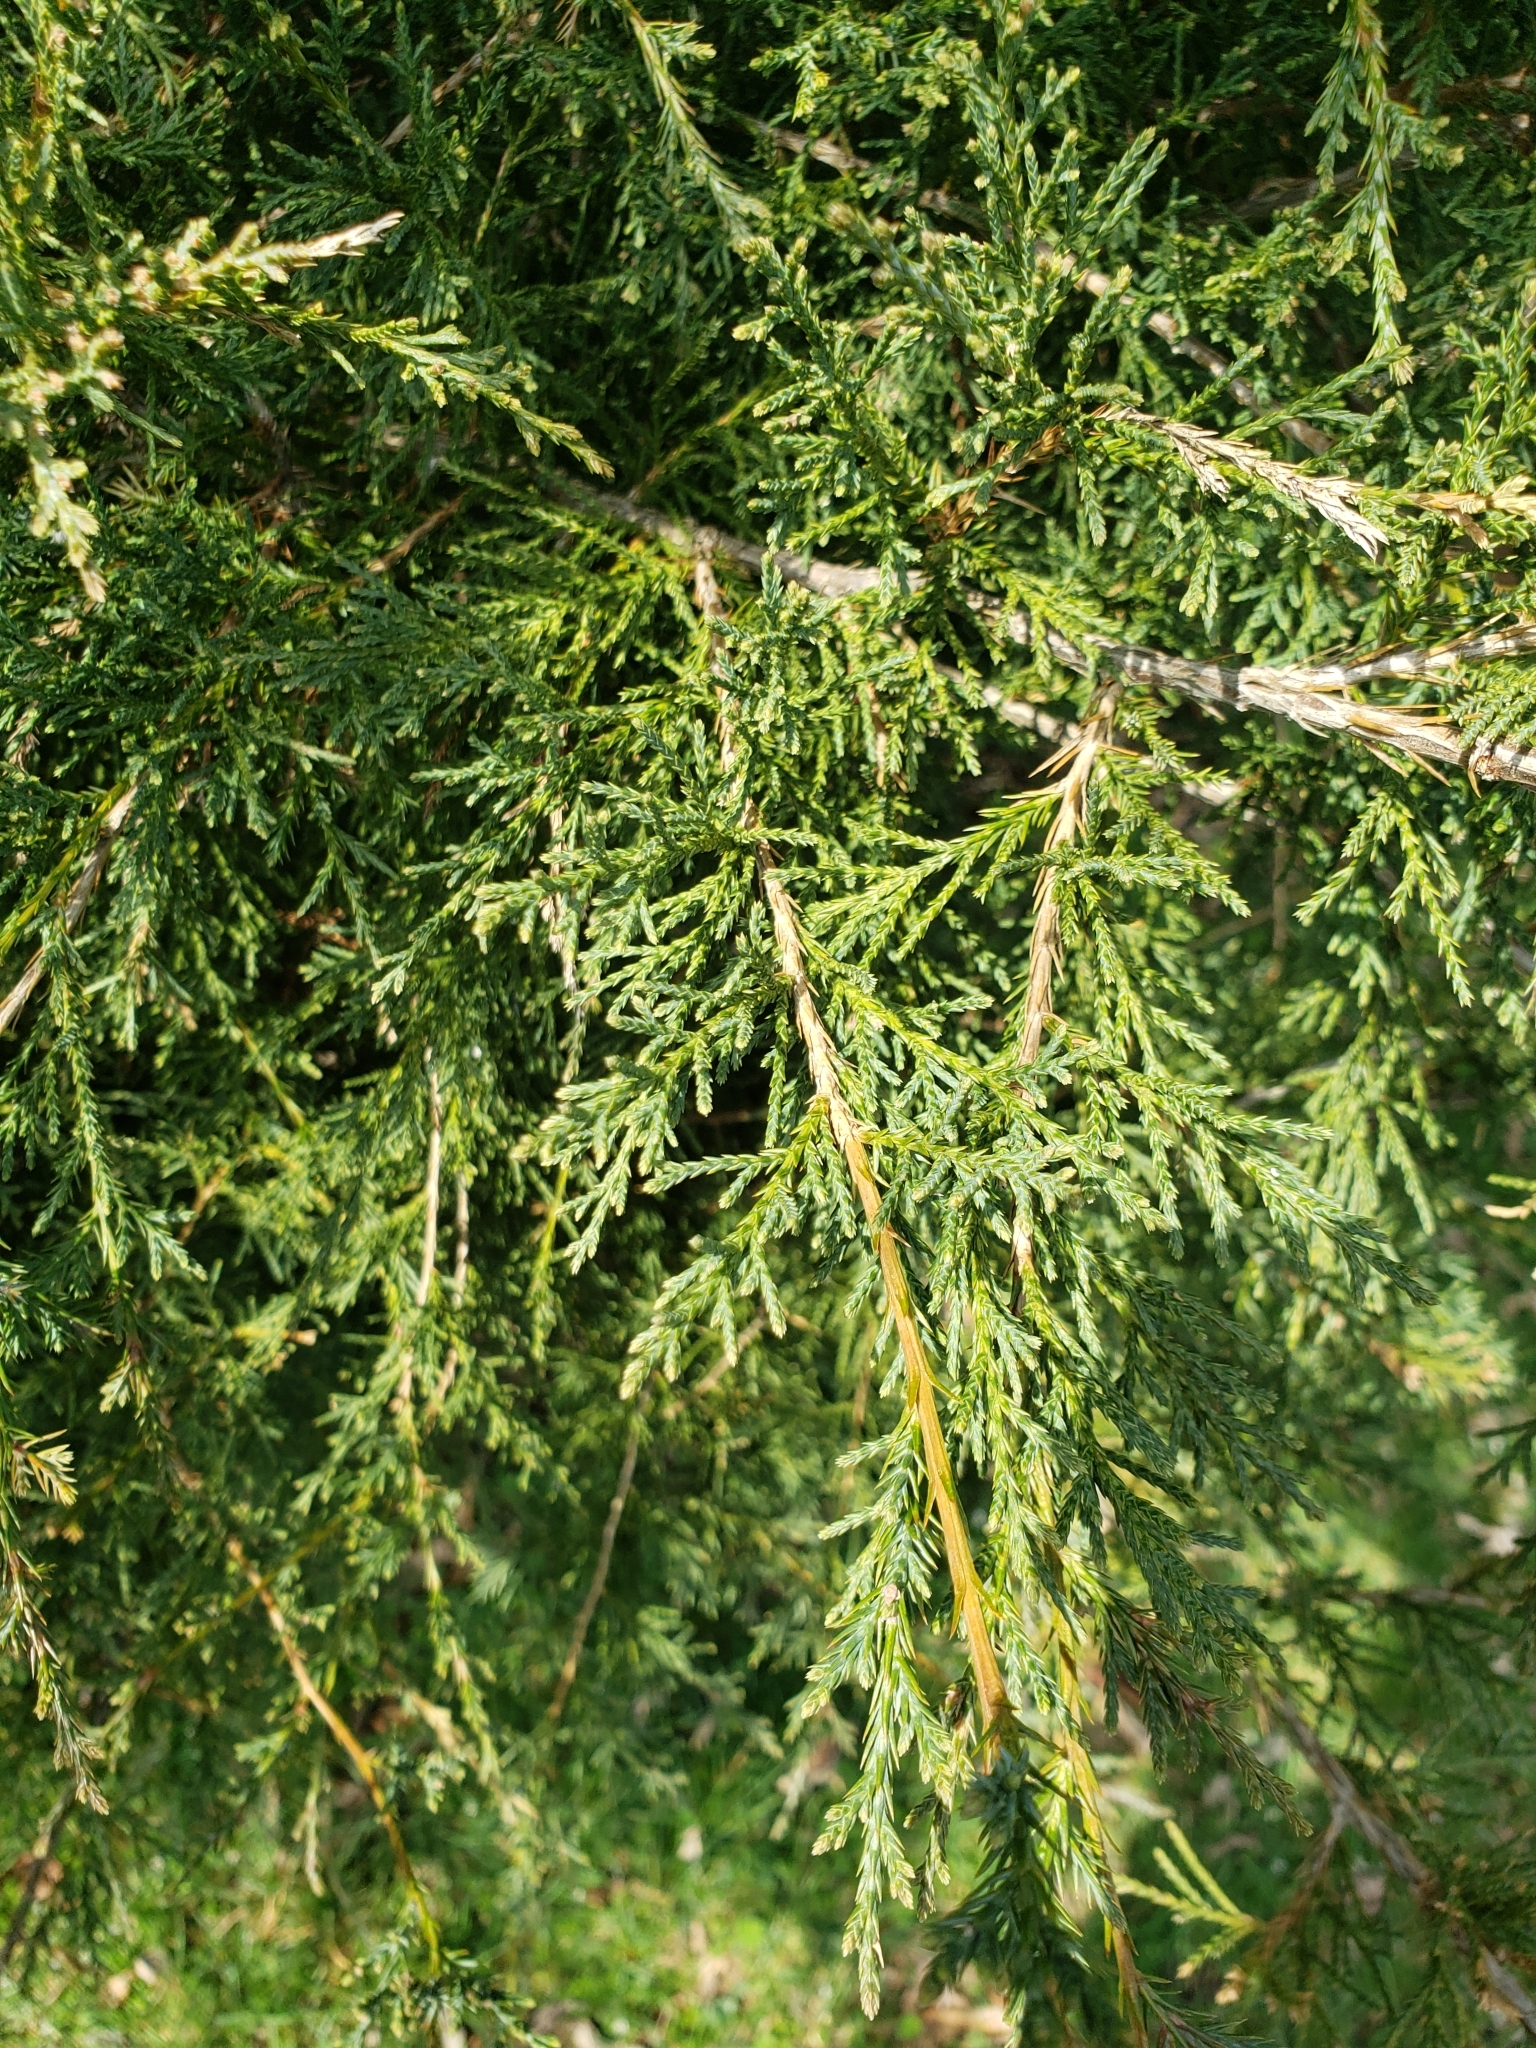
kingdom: Plantae
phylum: Tracheophyta
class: Pinopsida
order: Pinales
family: Cupressaceae
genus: Juniperus
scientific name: Juniperus virginiana
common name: Red juniper
